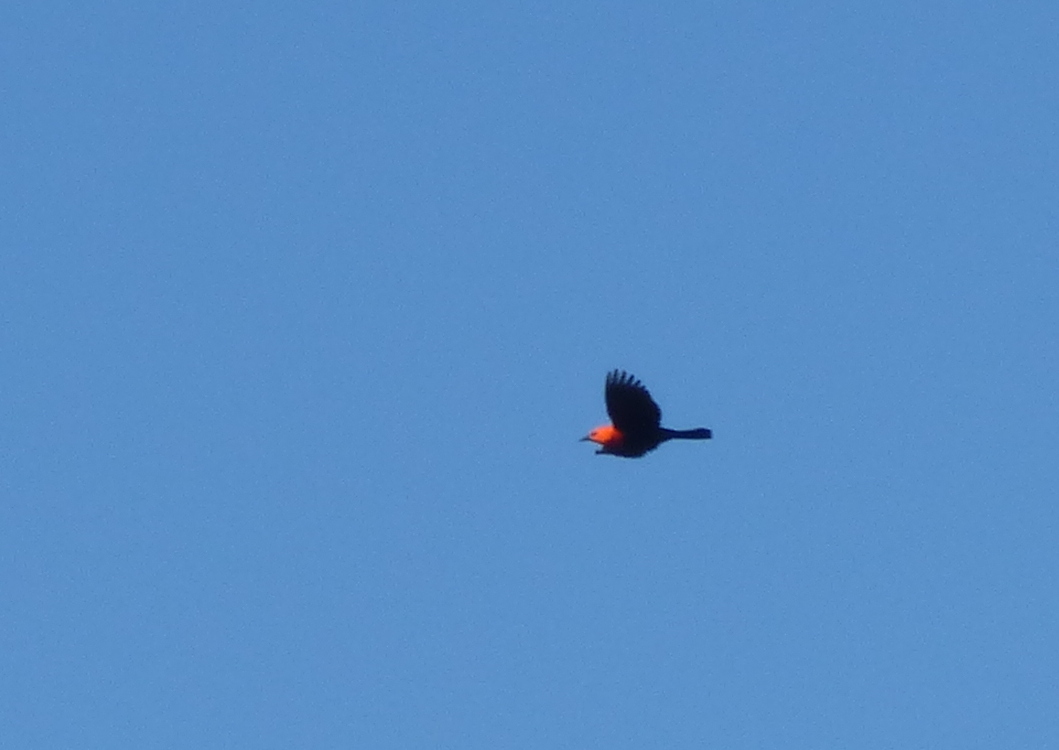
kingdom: Animalia
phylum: Chordata
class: Aves
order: Passeriformes
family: Icteridae
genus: Amblyramphus
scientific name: Amblyramphus holosericeus
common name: Scarlet-headed blackbird
